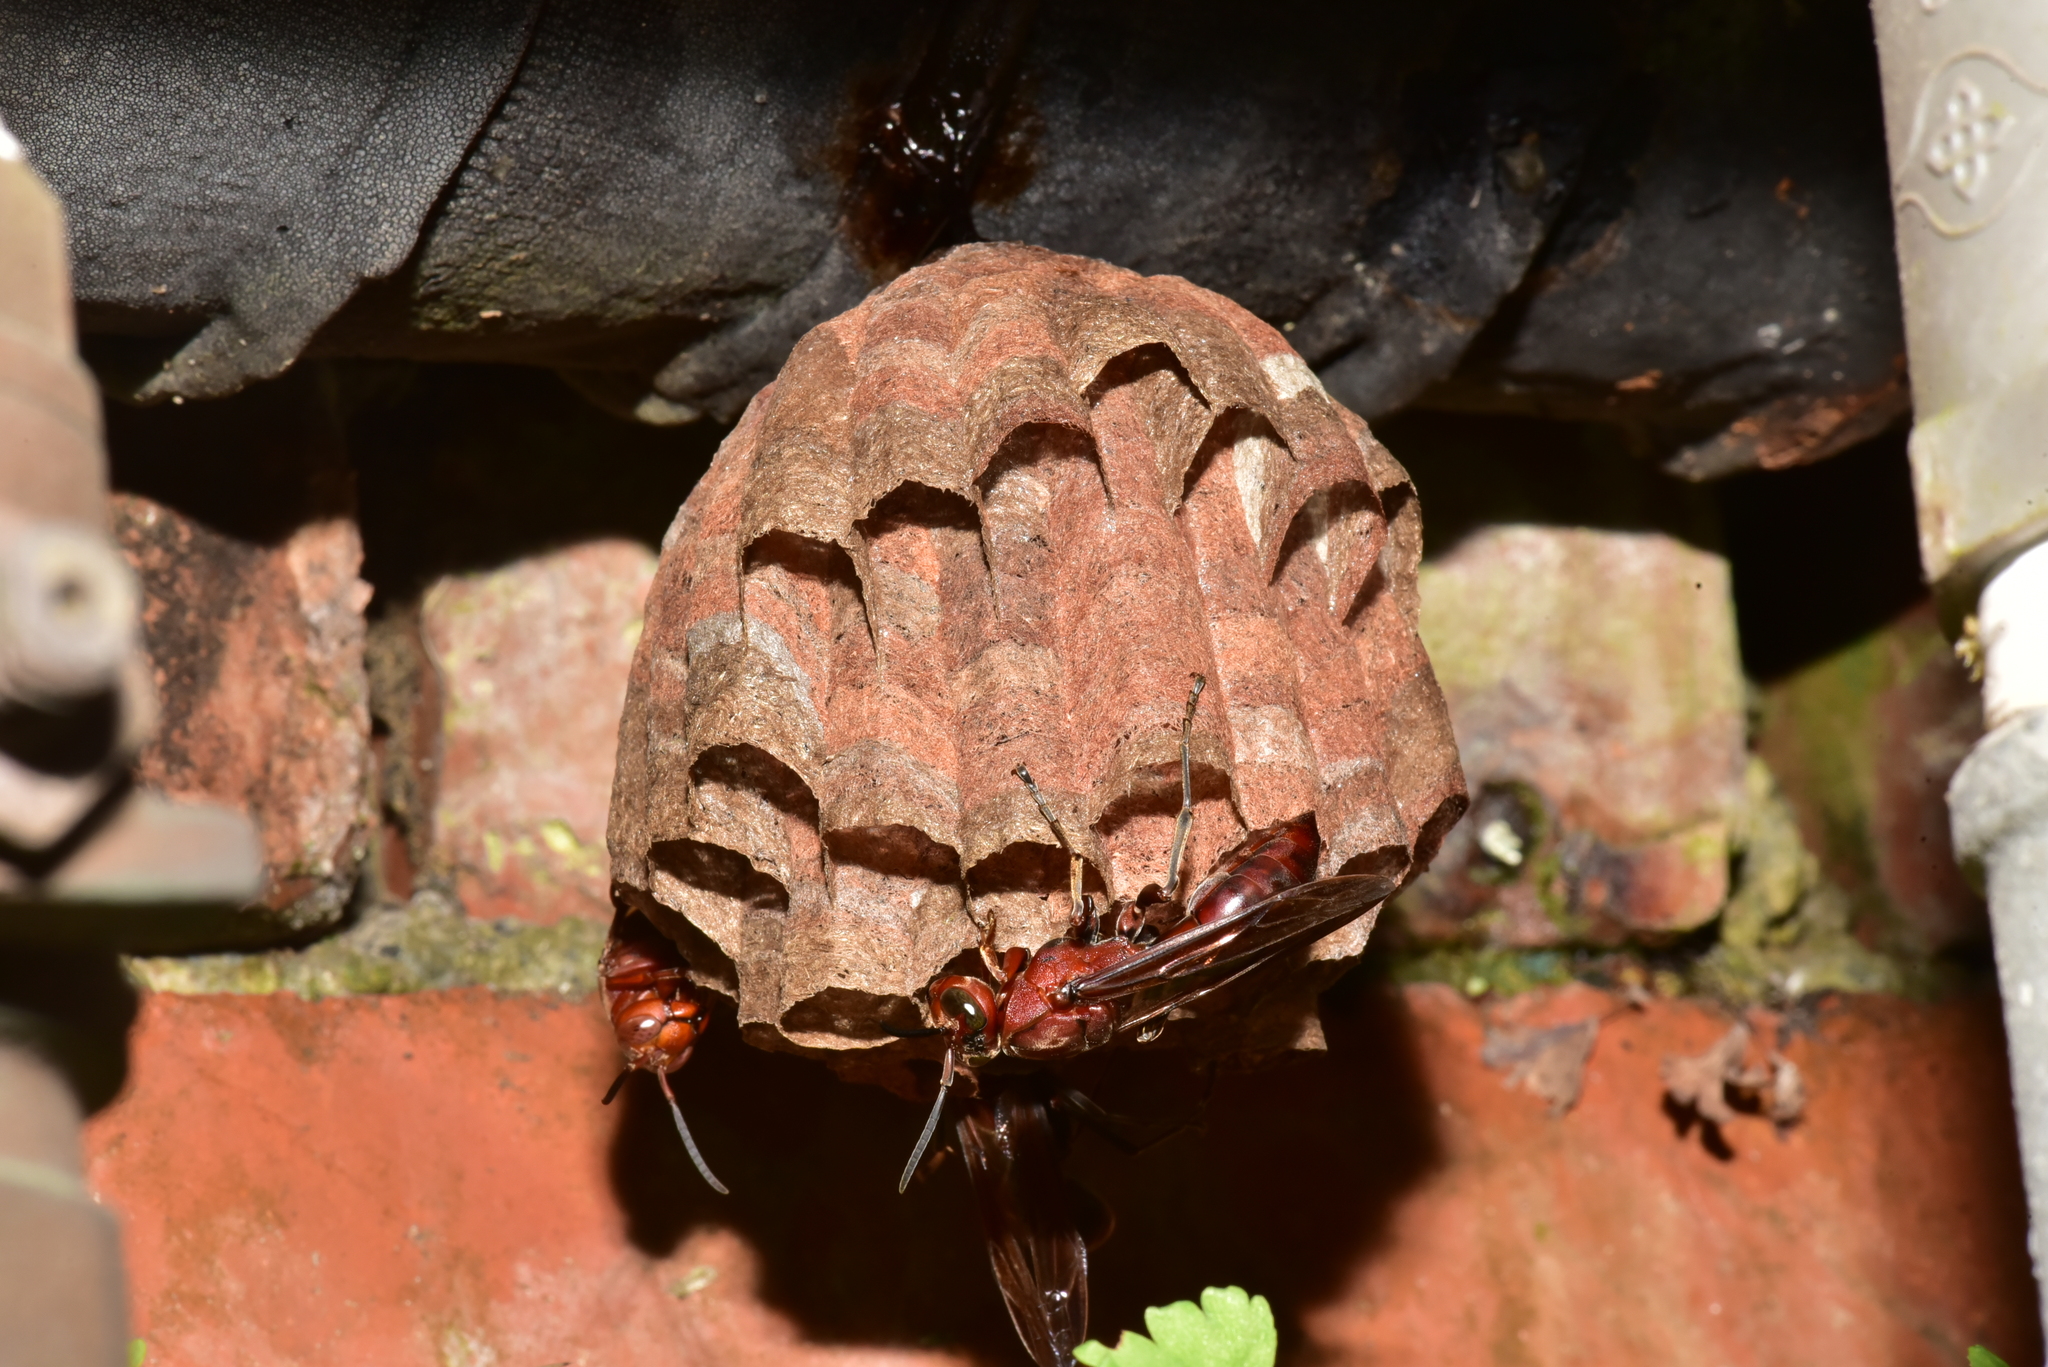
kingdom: Animalia
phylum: Arthropoda
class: Insecta
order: Hymenoptera
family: Eumenidae
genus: Polistes
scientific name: Polistes tenebricosus
